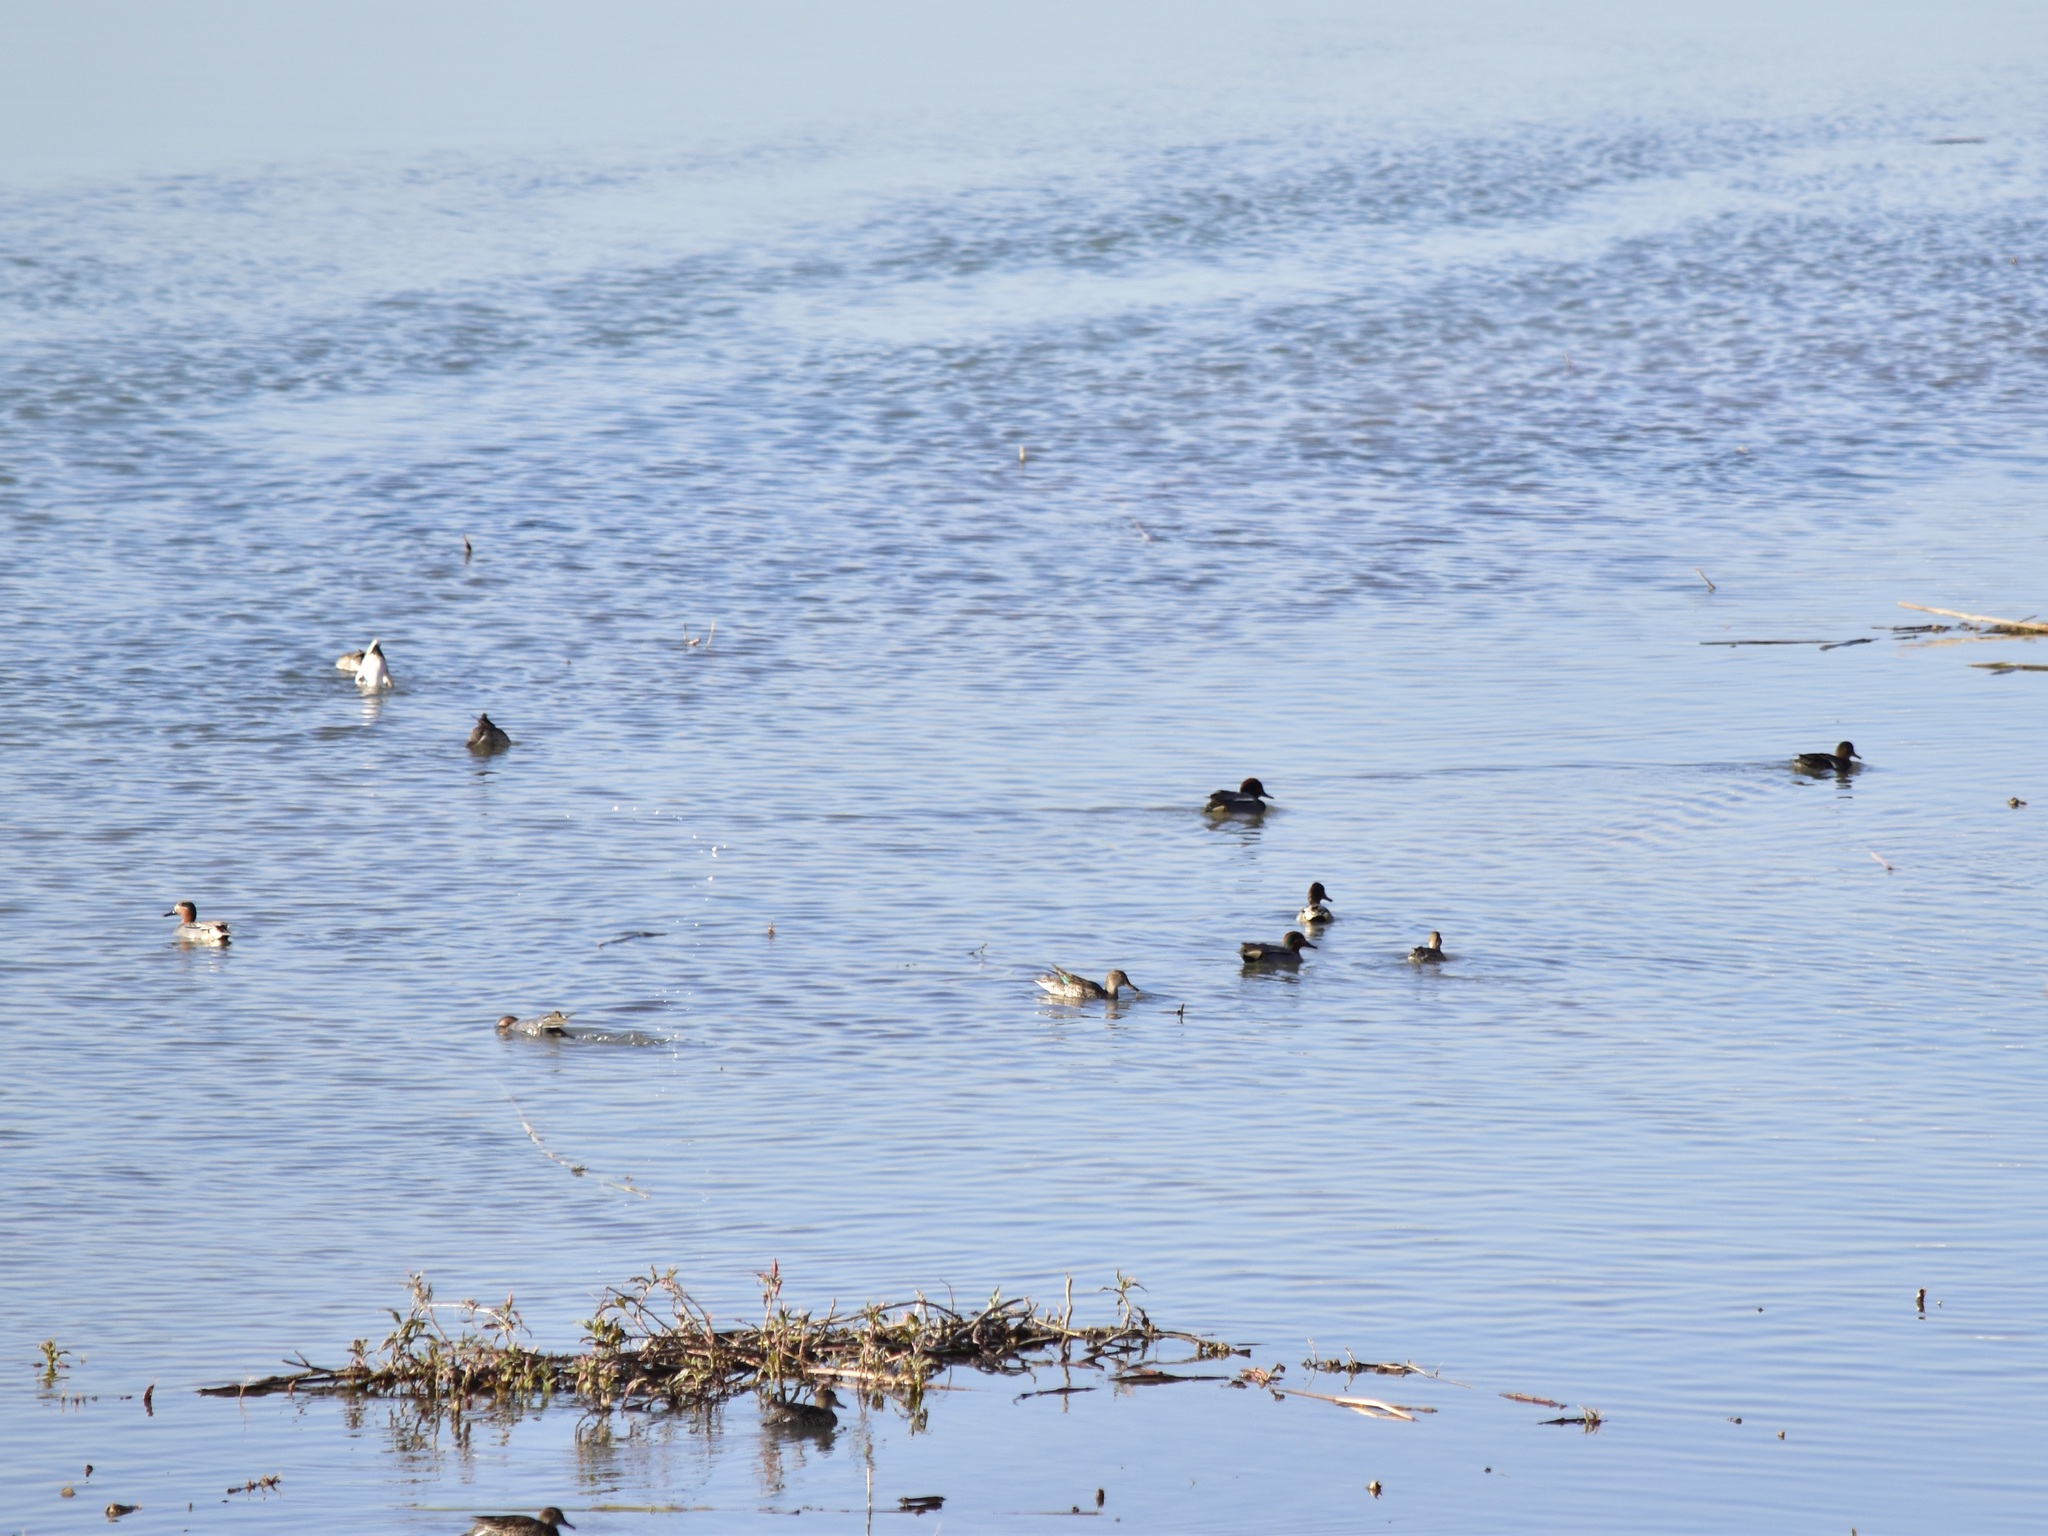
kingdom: Animalia
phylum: Chordata
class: Aves
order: Anseriformes
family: Anatidae
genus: Anas
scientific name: Anas crecca
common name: Eurasian teal
